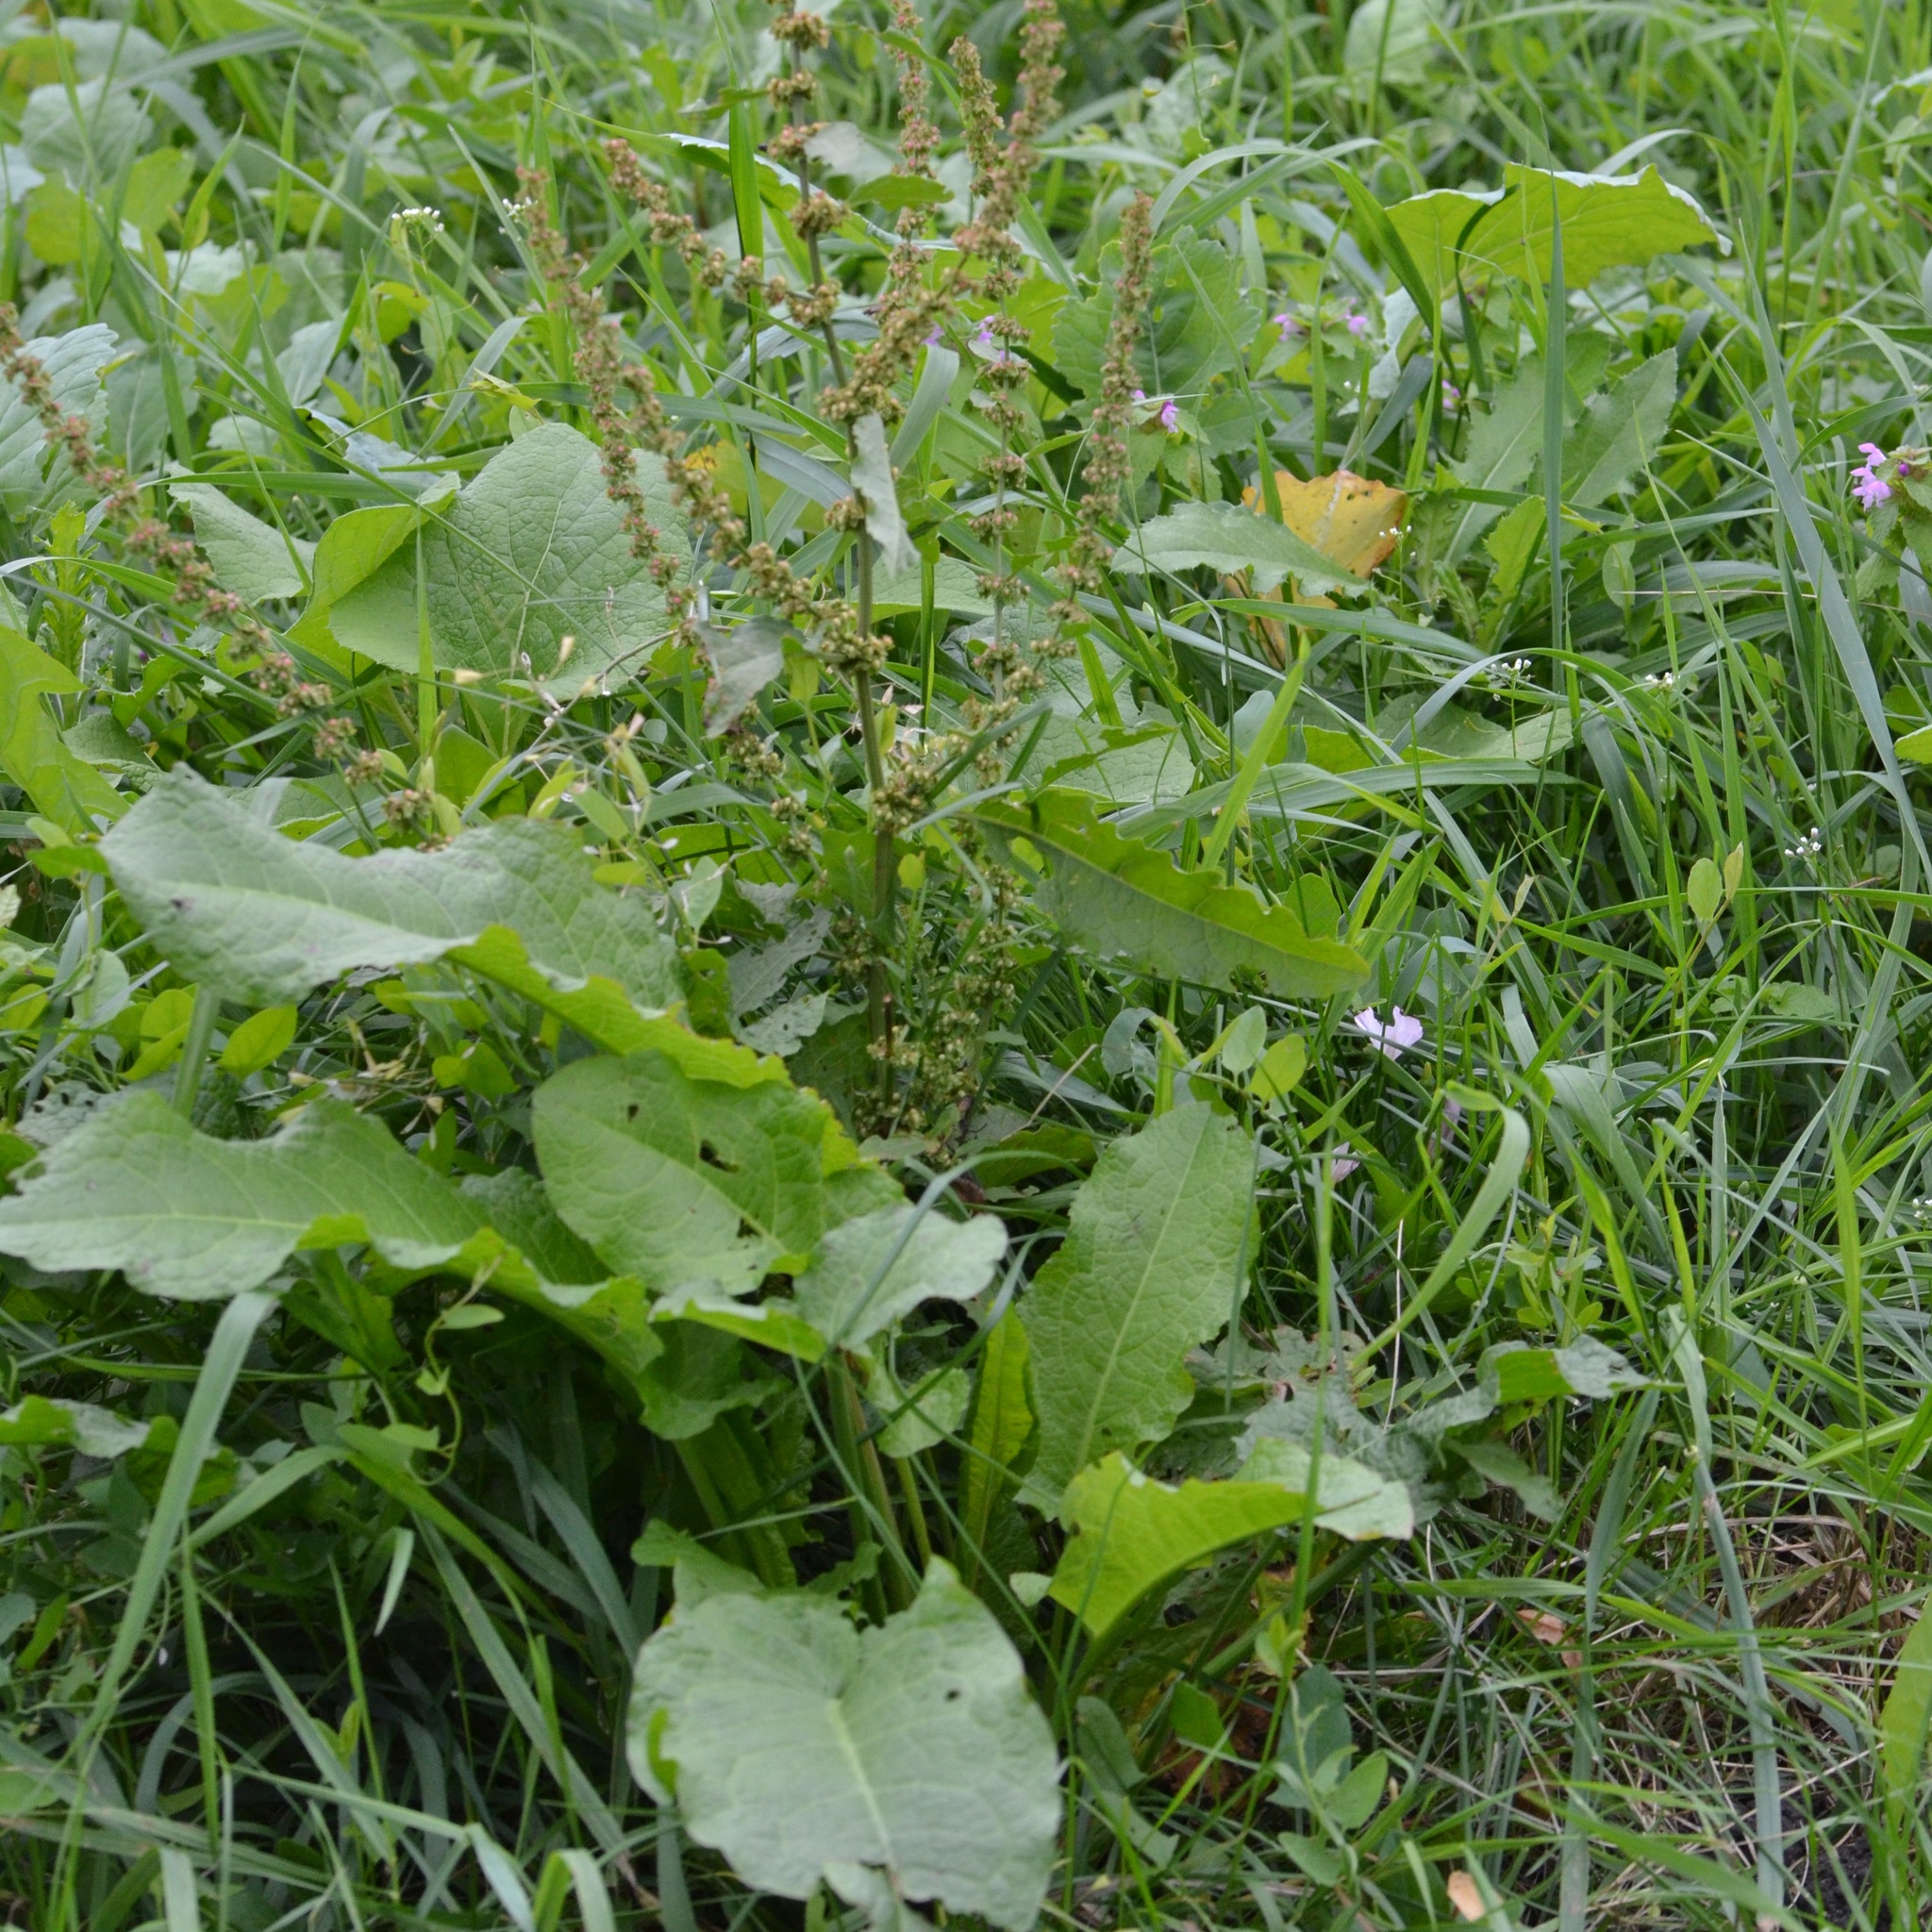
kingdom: Plantae
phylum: Tracheophyta
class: Magnoliopsida
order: Caryophyllales
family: Polygonaceae
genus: Rumex
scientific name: Rumex obtusifolius
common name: Bitter dock
